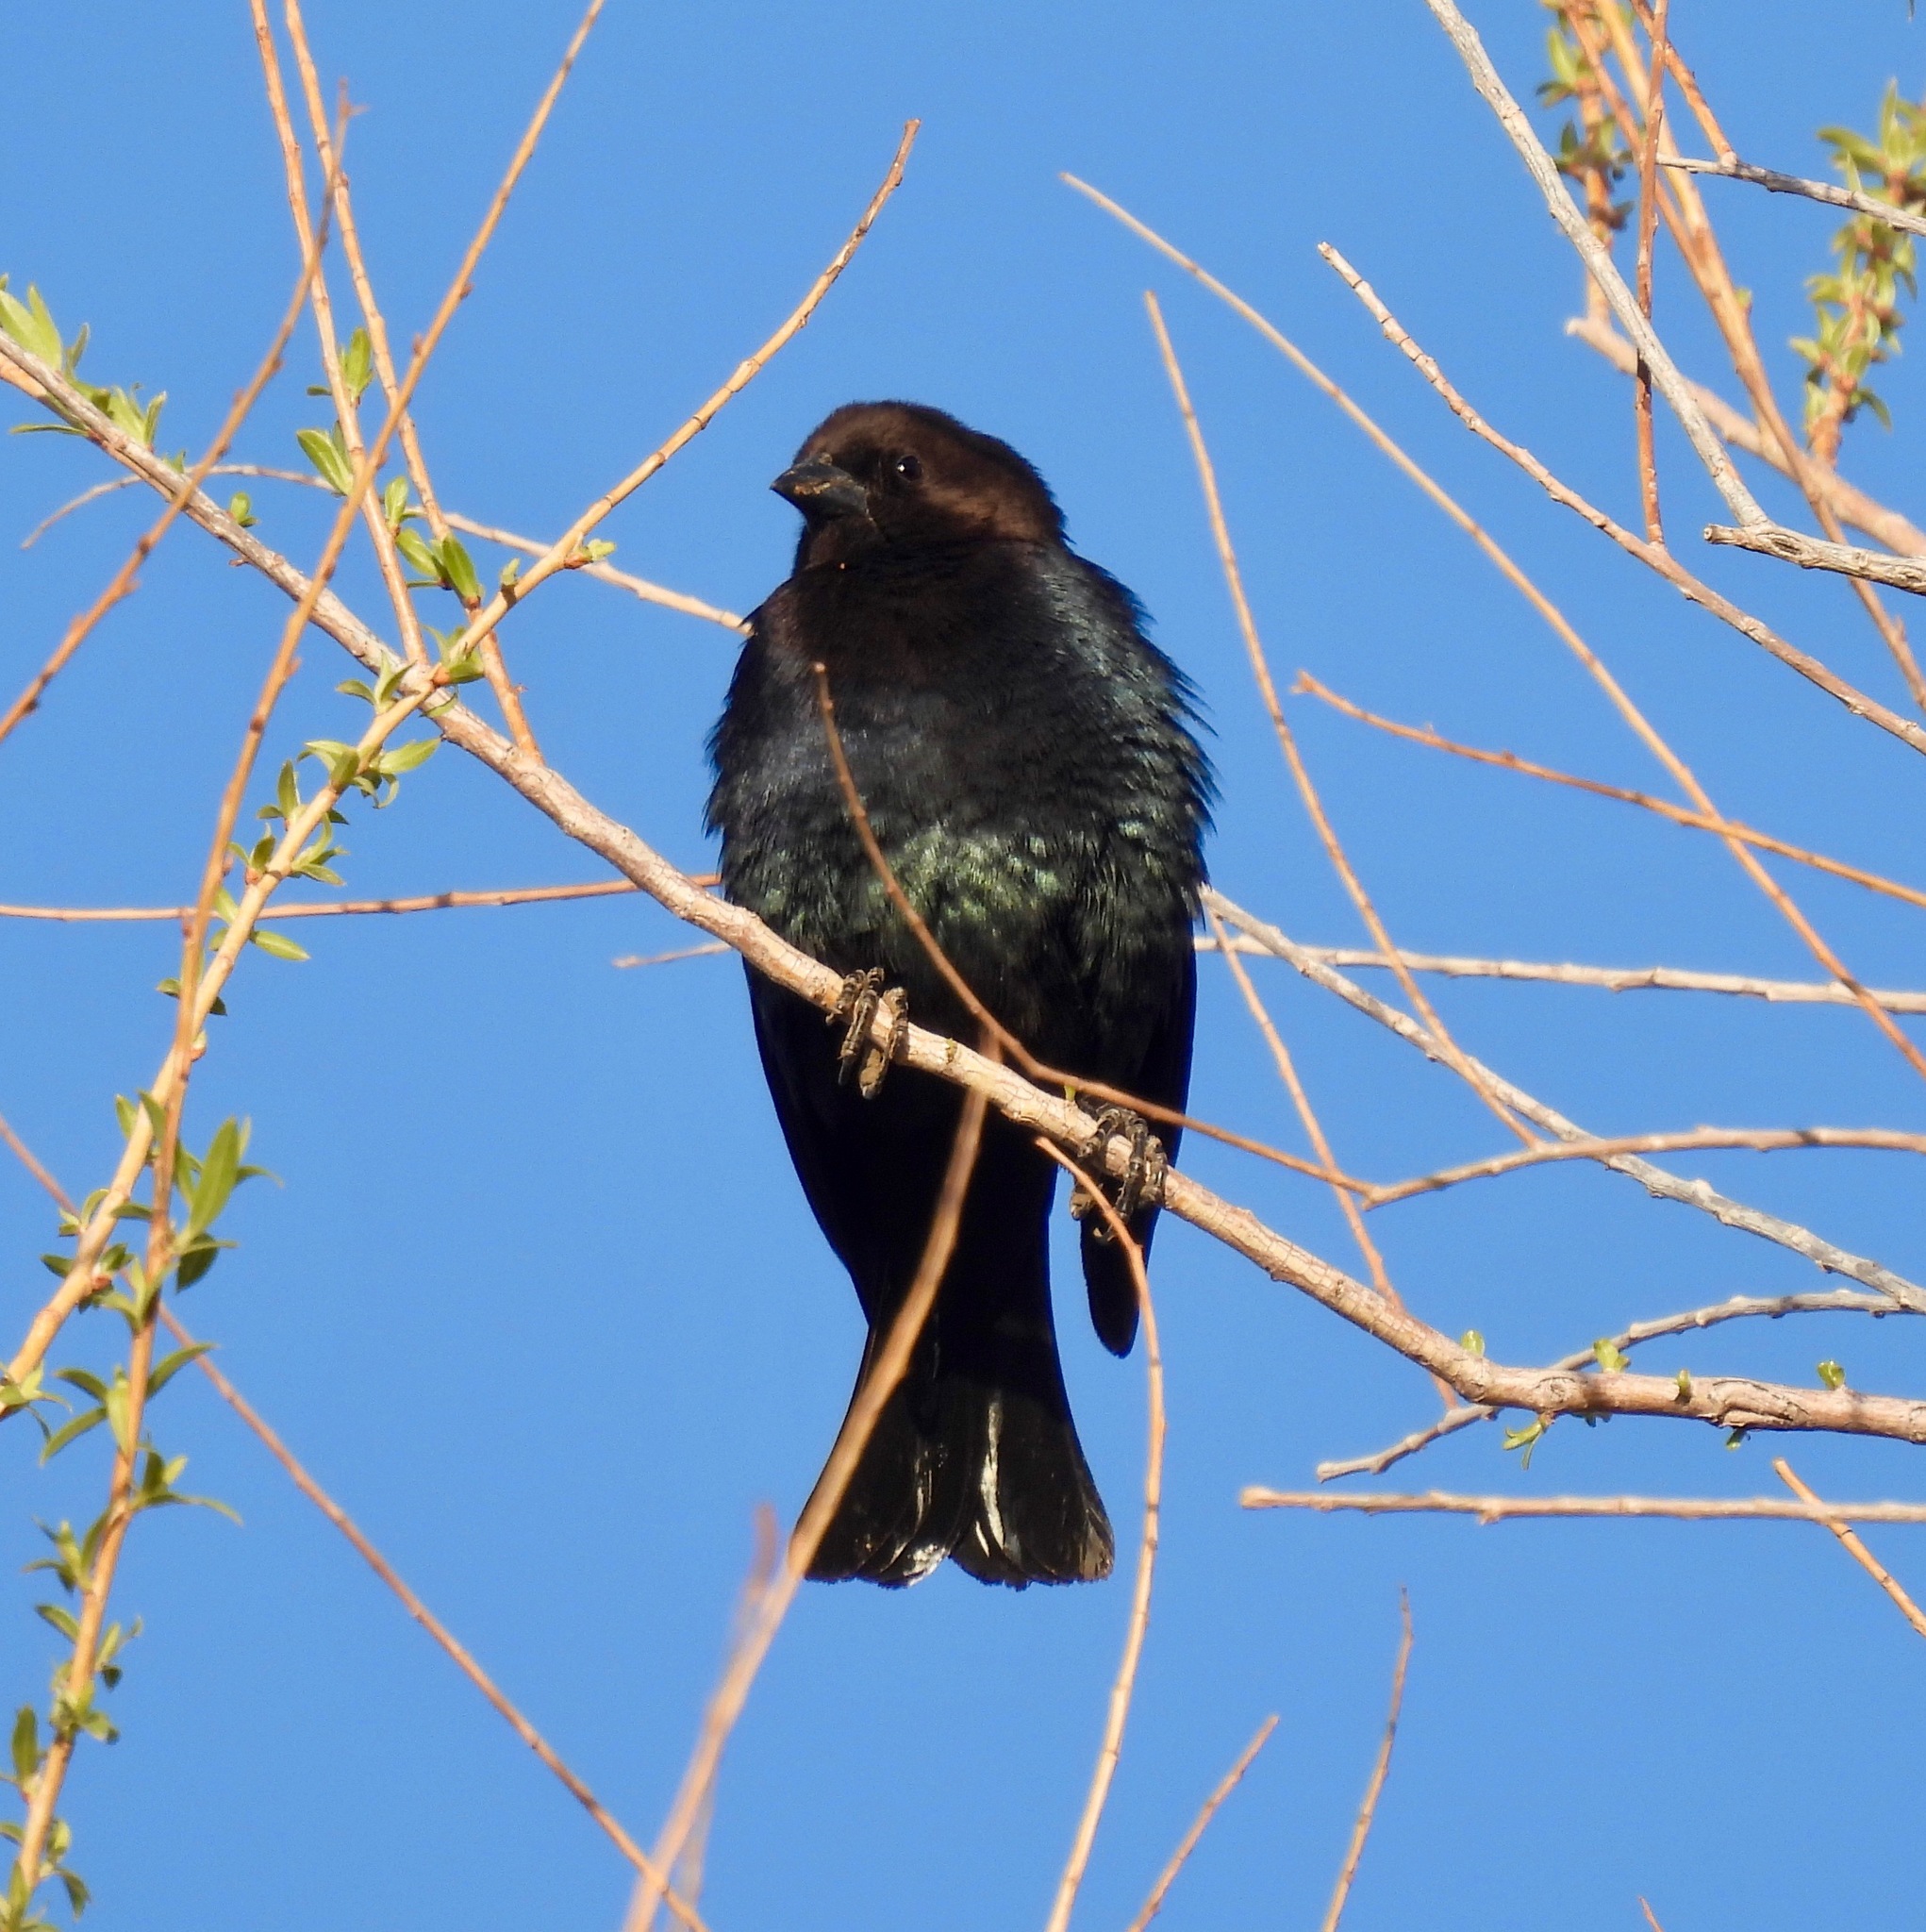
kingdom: Animalia
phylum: Chordata
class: Aves
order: Passeriformes
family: Icteridae
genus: Molothrus
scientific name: Molothrus ater
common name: Brown-headed cowbird
